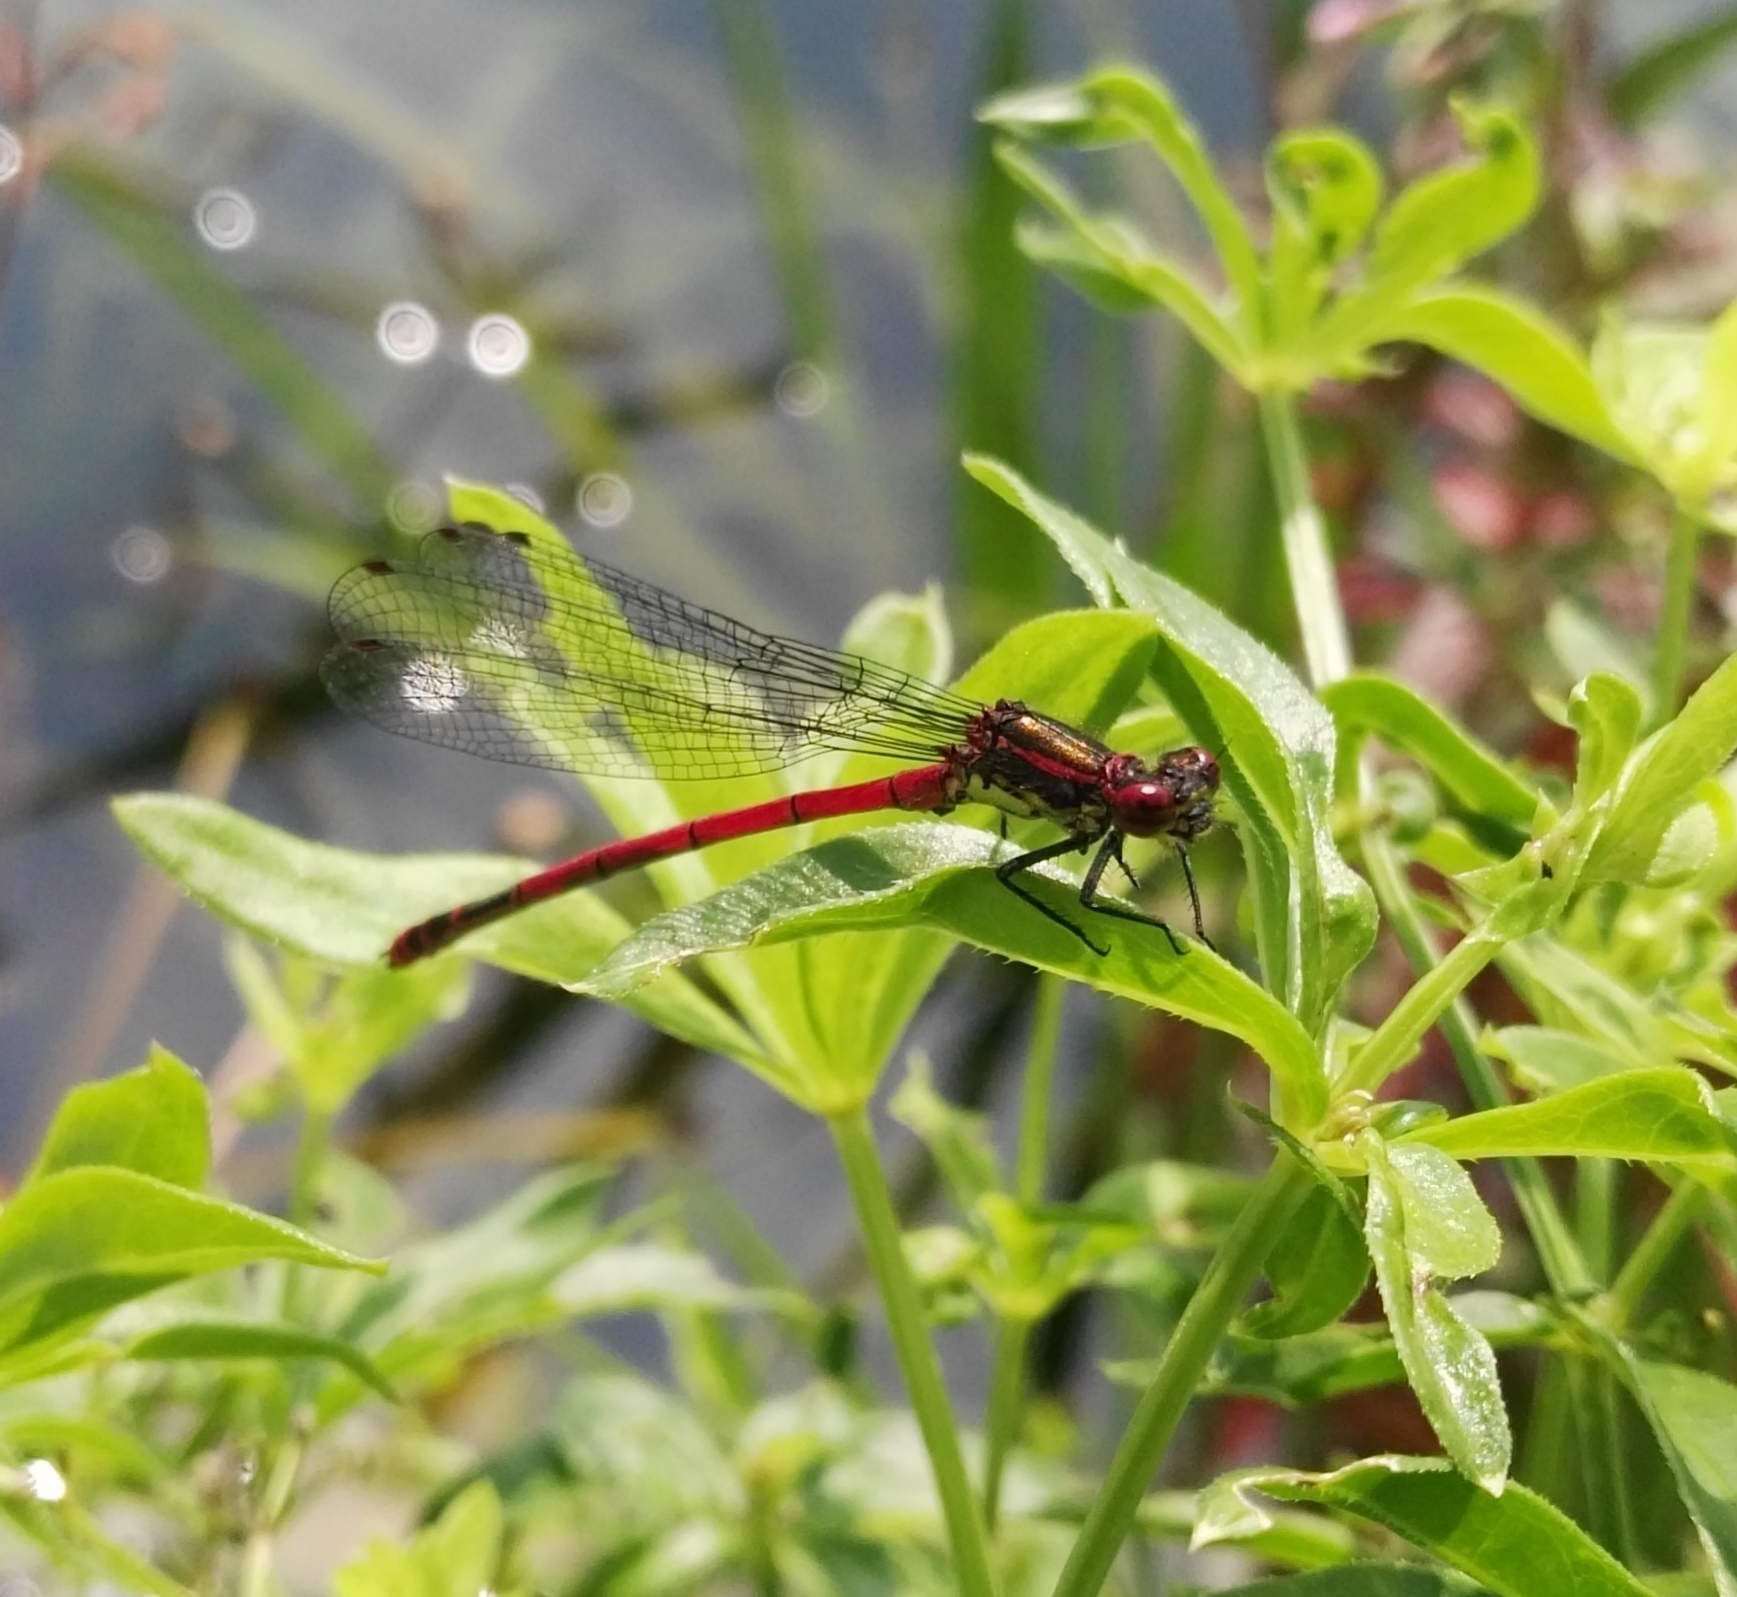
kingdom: Animalia
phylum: Arthropoda
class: Insecta
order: Odonata
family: Coenagrionidae
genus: Pyrrhosoma
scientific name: Pyrrhosoma nymphula
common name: Large red damsel
